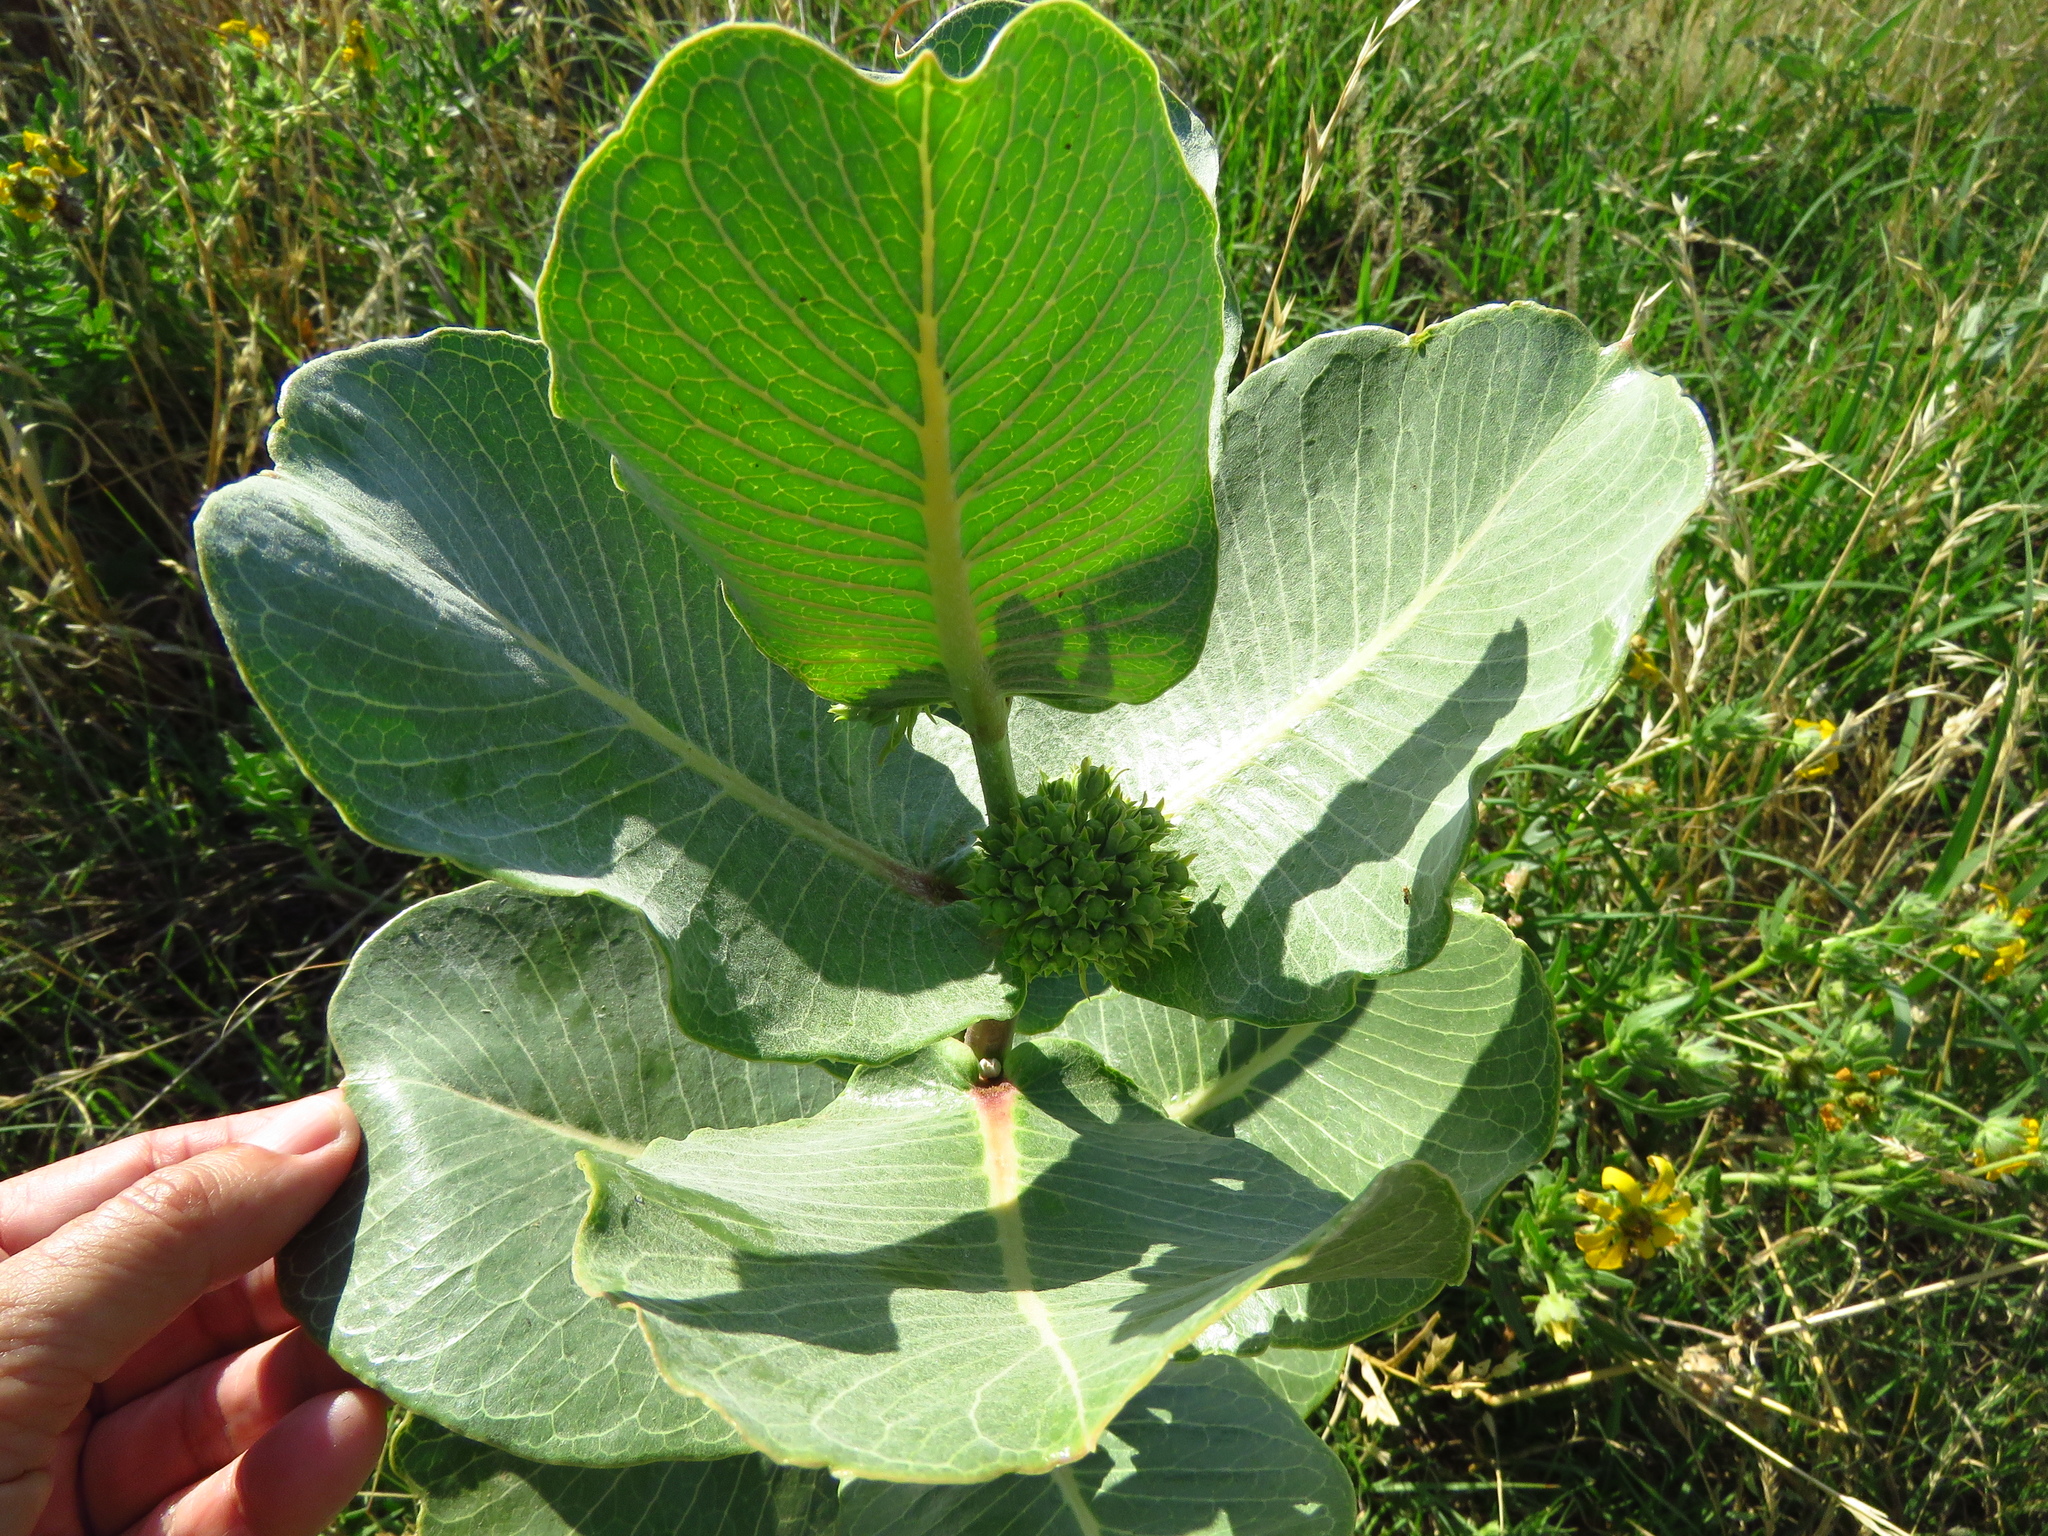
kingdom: Plantae
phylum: Tracheophyta
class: Magnoliopsida
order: Gentianales
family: Apocynaceae
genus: Asclepias
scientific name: Asclepias latifolia
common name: Broadleaf milkweed
